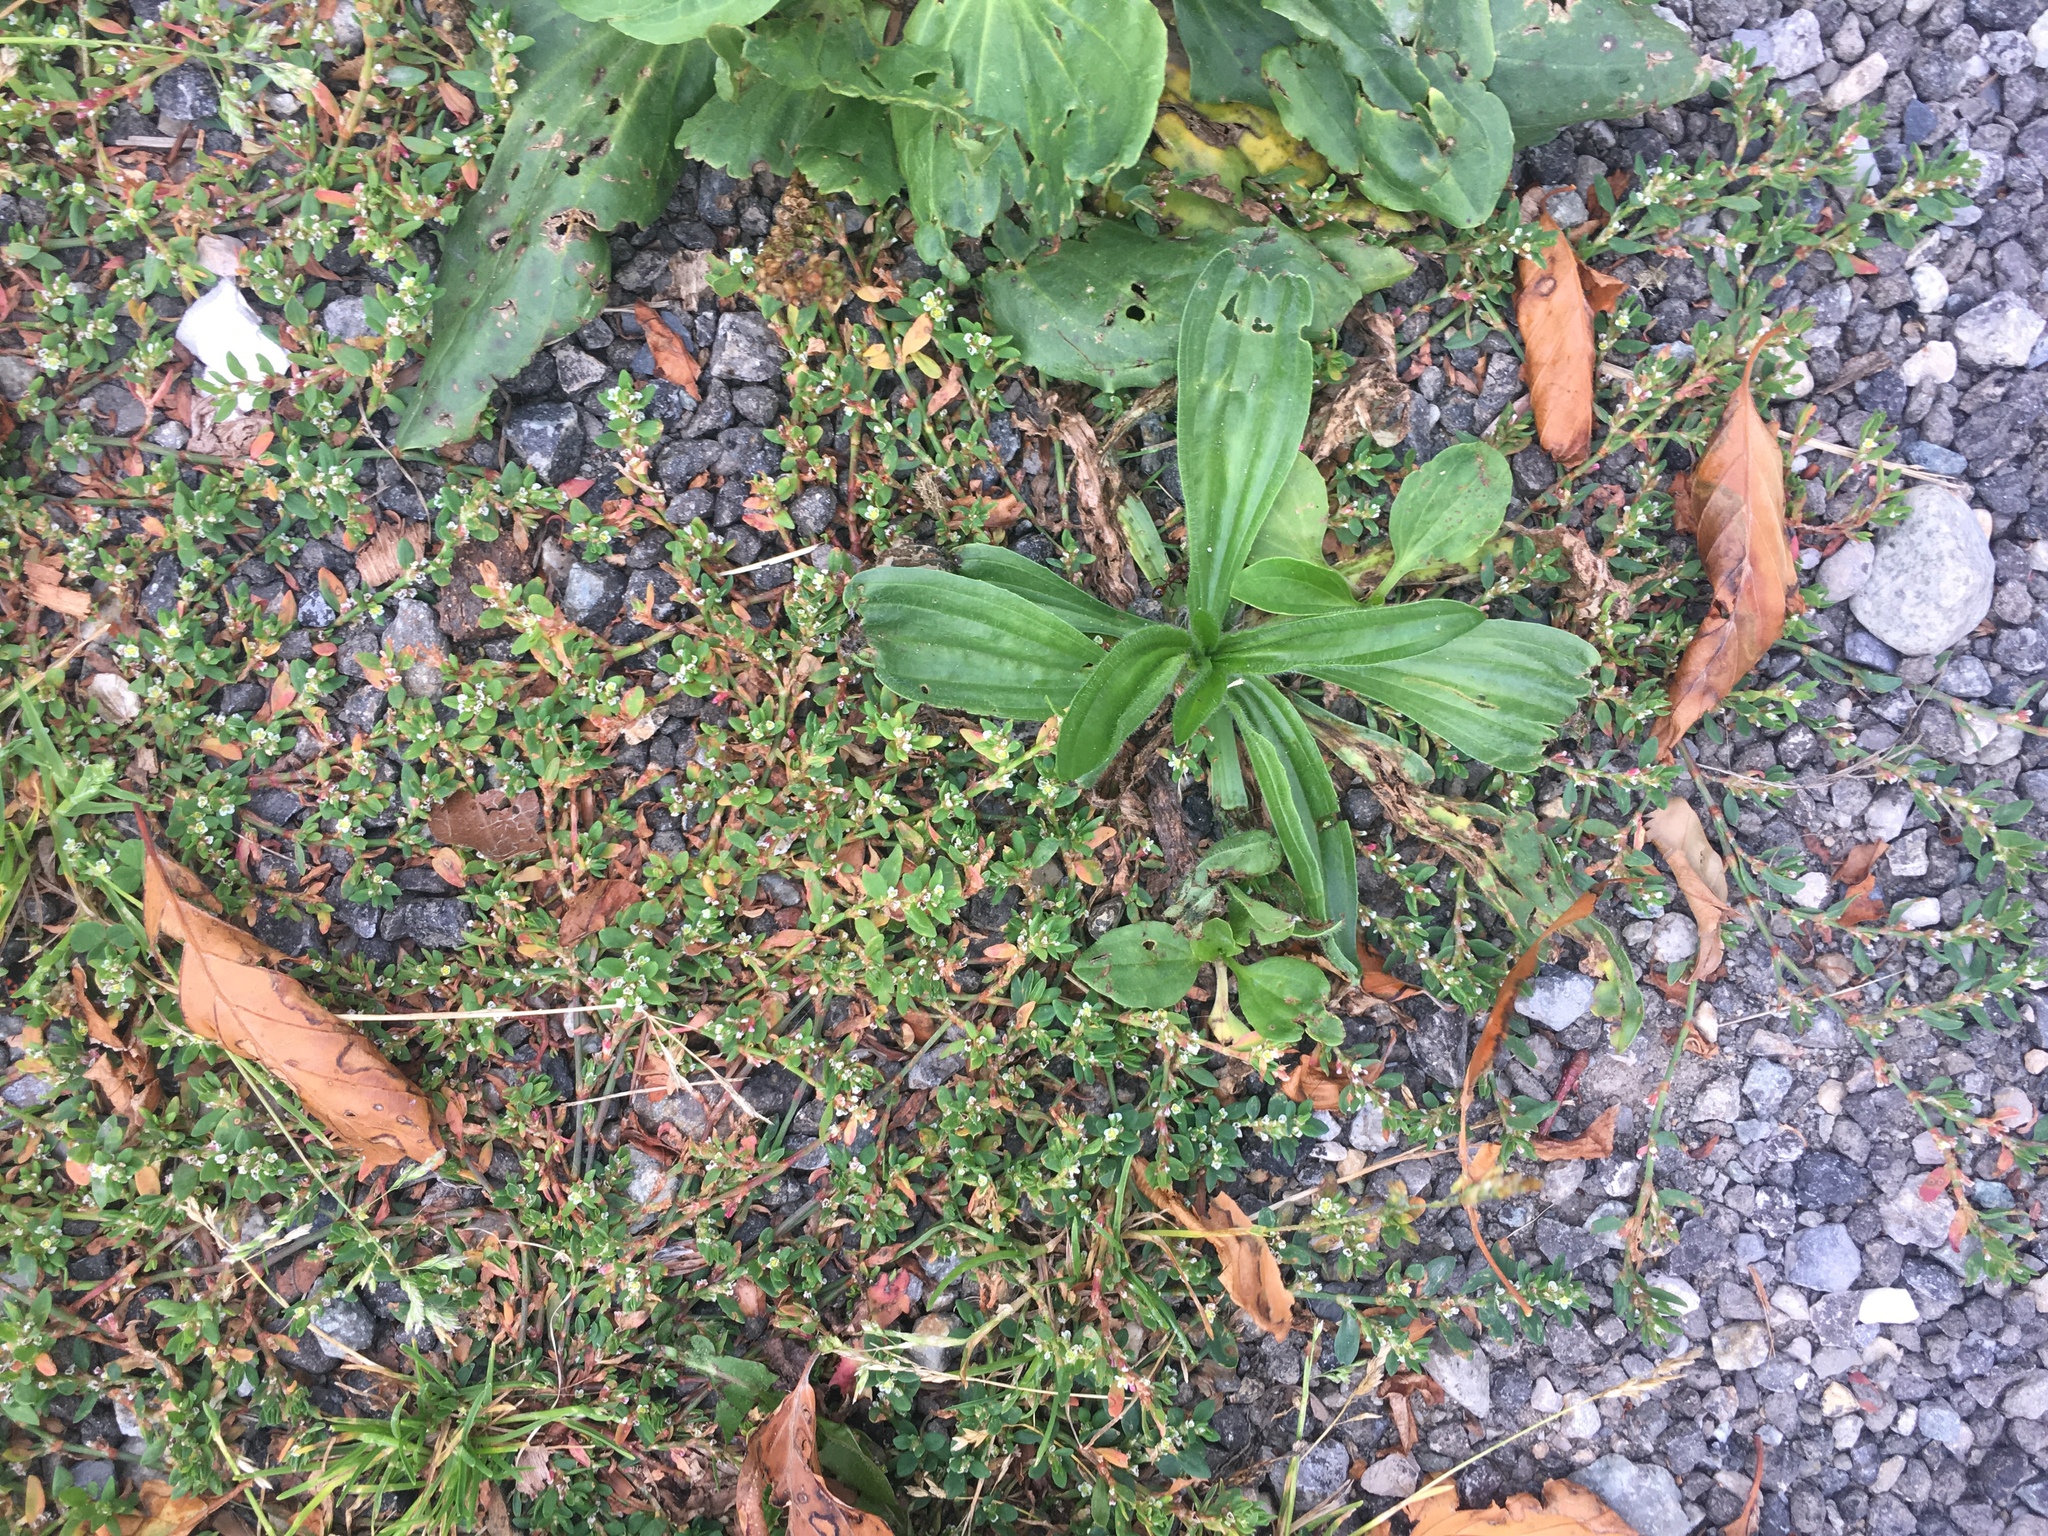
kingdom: Plantae
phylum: Tracheophyta
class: Magnoliopsida
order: Caryophyllales
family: Polygonaceae
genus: Polygonum
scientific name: Polygonum aviculare
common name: Prostrate knotweed
